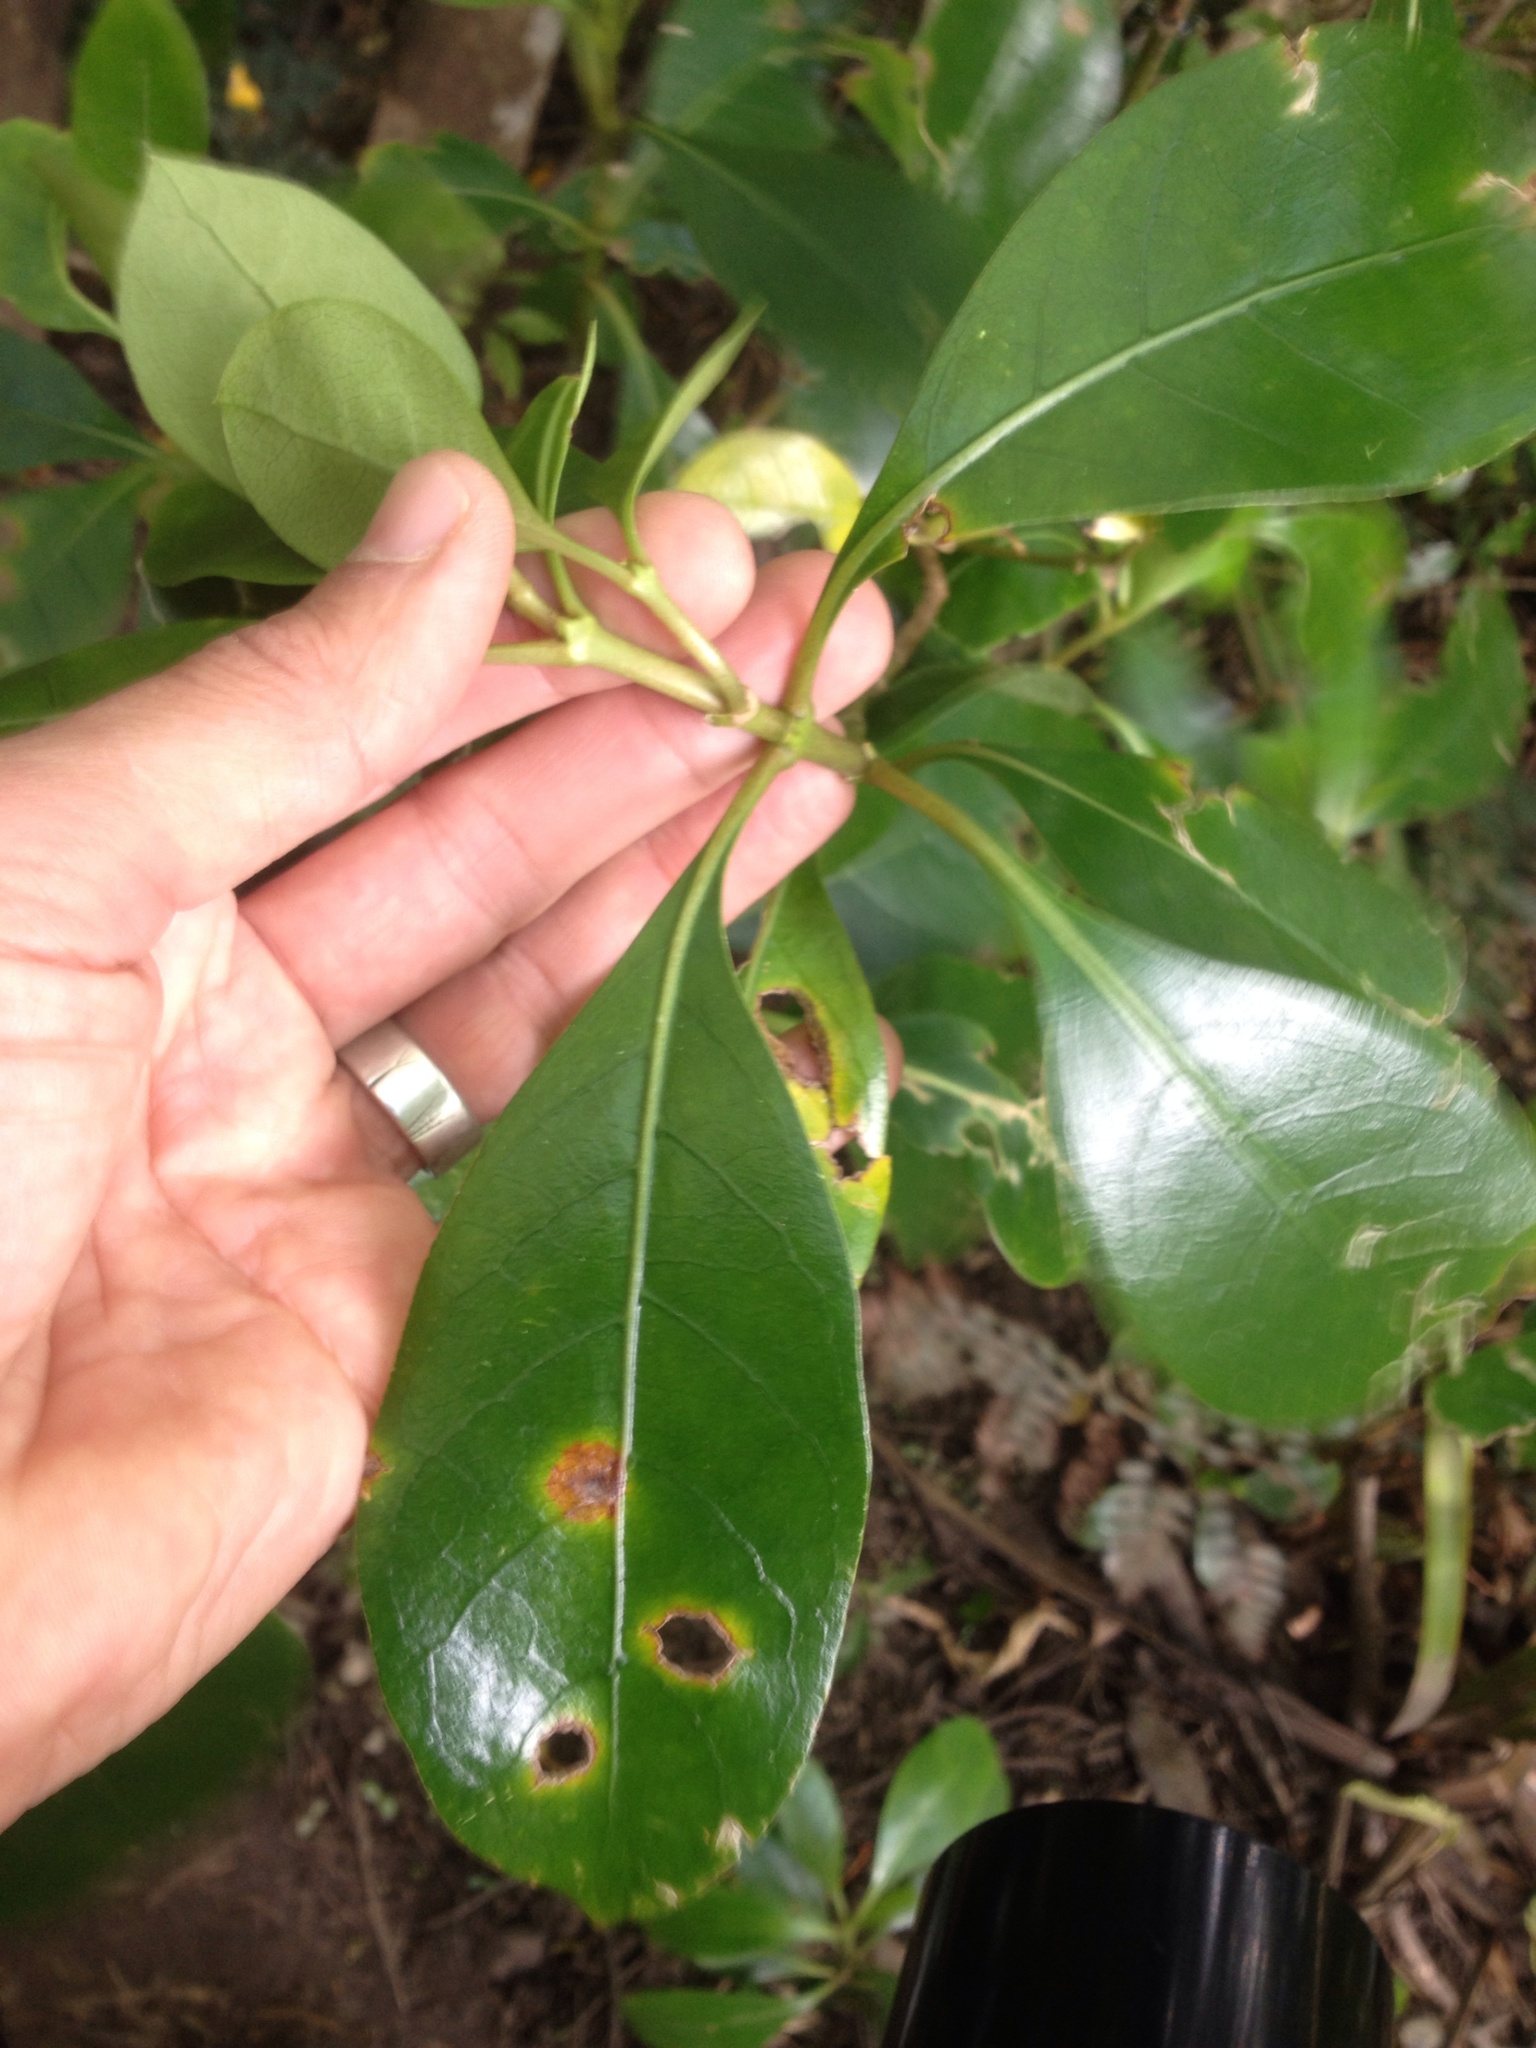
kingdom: Fungi
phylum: Basidiomycota
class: Pucciniomycetes
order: Pucciniales
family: Pucciniaceae
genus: Puccinia
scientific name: Puccinia coprosmae
